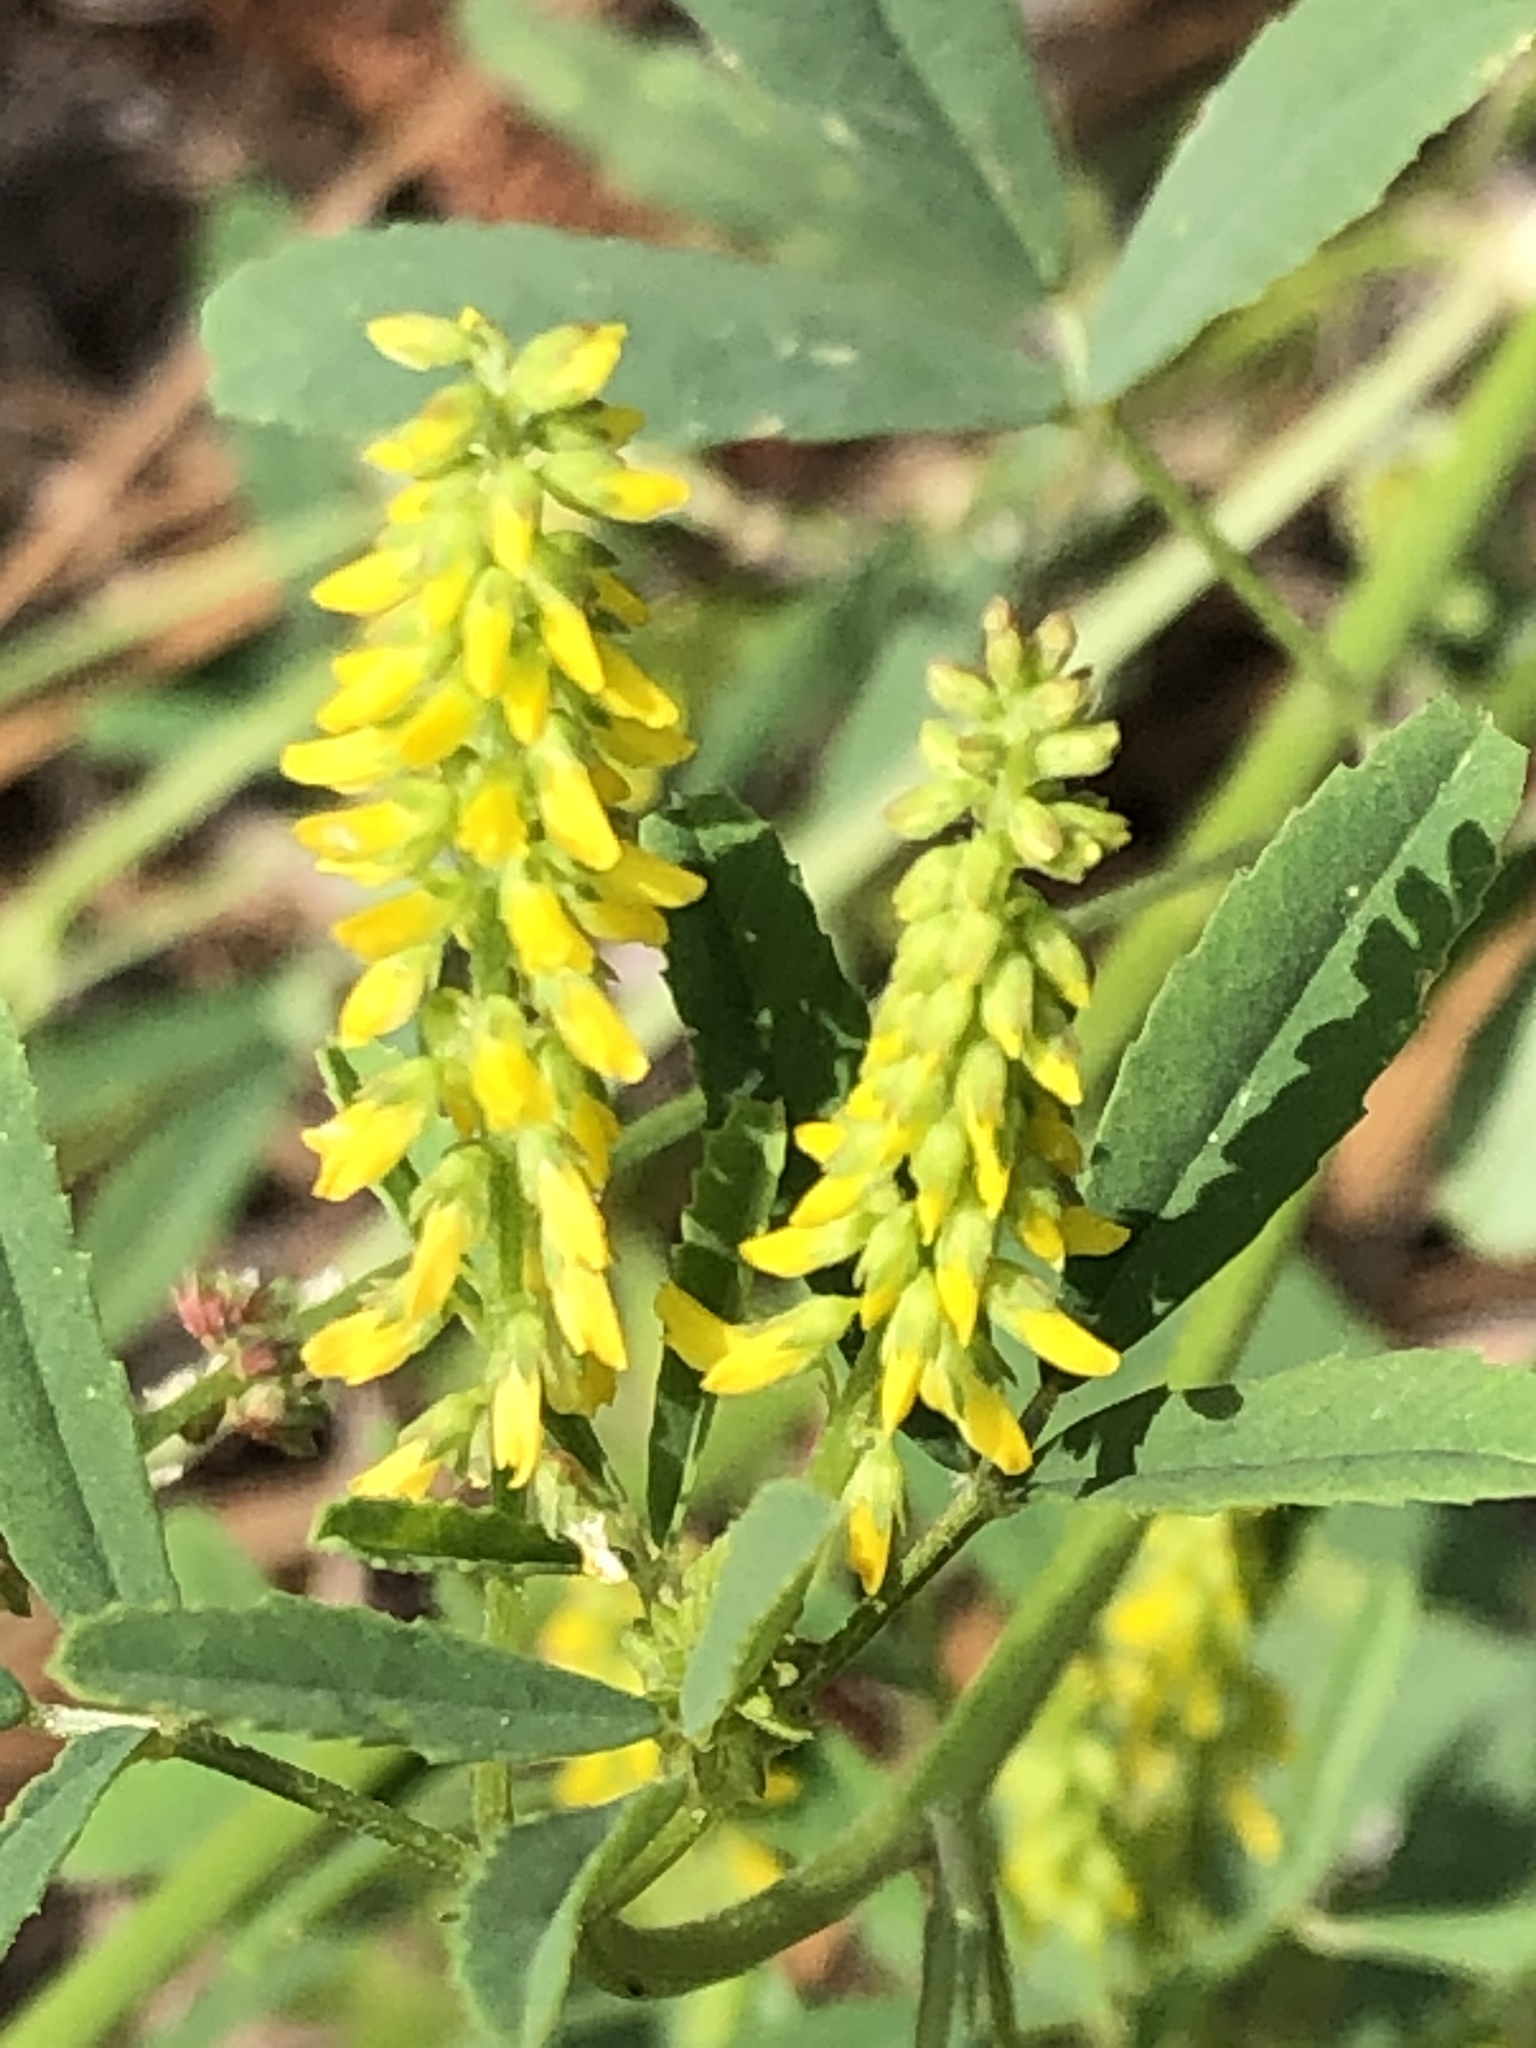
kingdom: Plantae
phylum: Tracheophyta
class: Magnoliopsida
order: Fabales
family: Fabaceae
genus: Melilotus
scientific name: Melilotus indicus
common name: Small melilot
